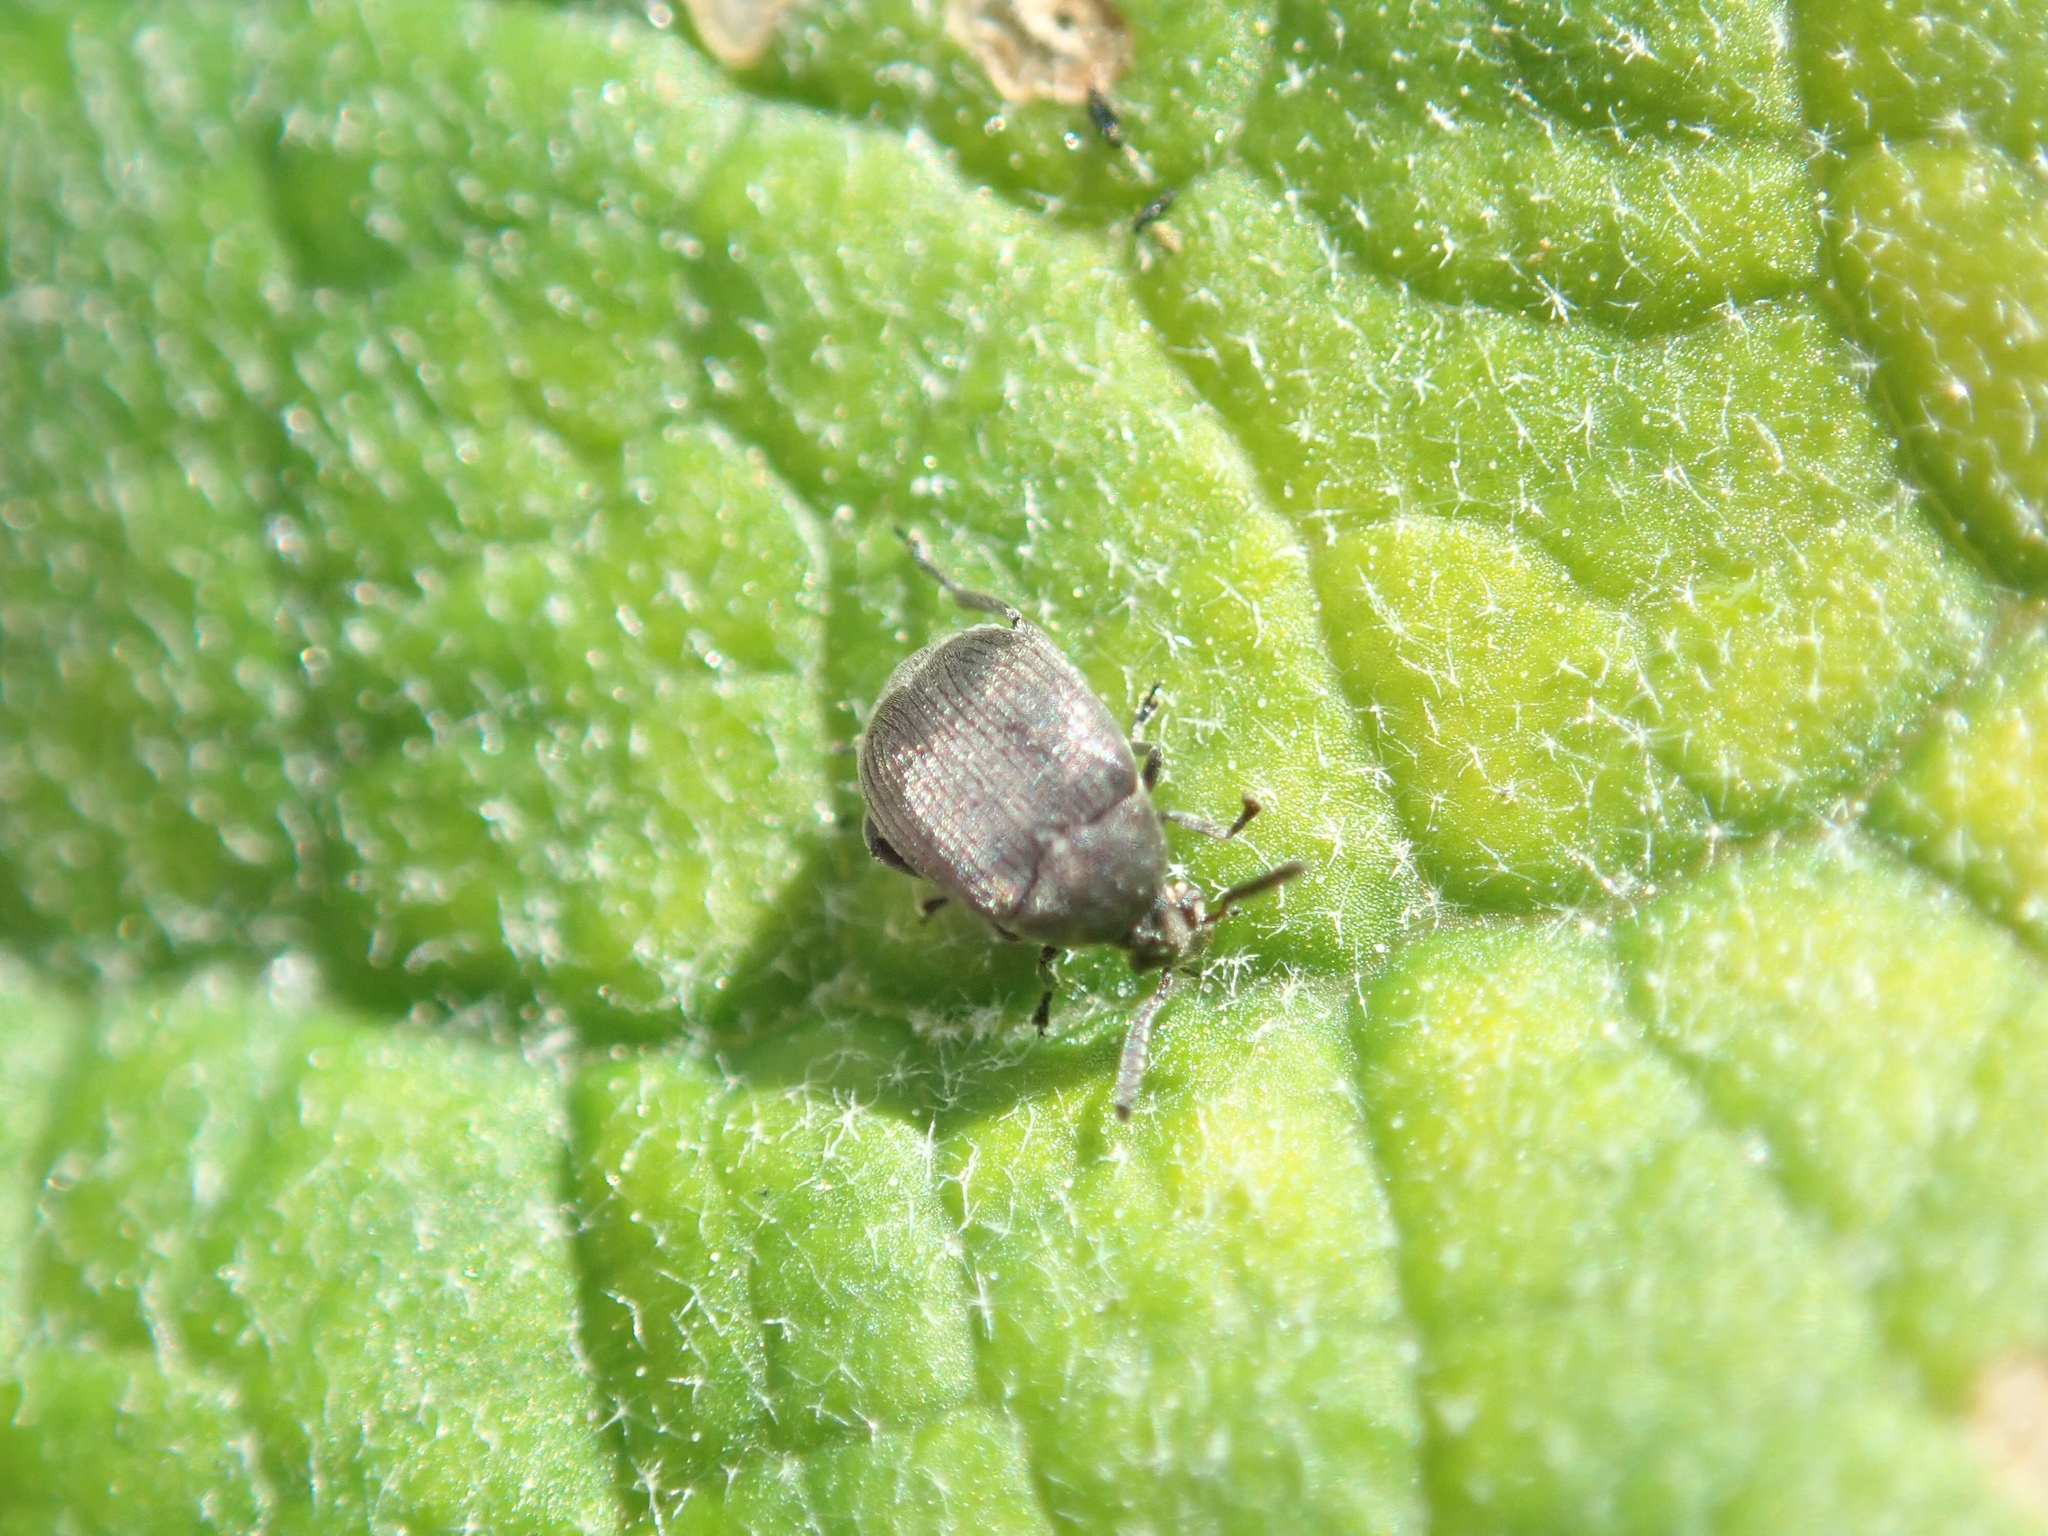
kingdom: Animalia
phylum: Arthropoda
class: Insecta
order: Coleoptera
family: Chrysomelidae
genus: Bruchidius
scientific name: Bruchidius villosus
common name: Scotch broom bruchid
